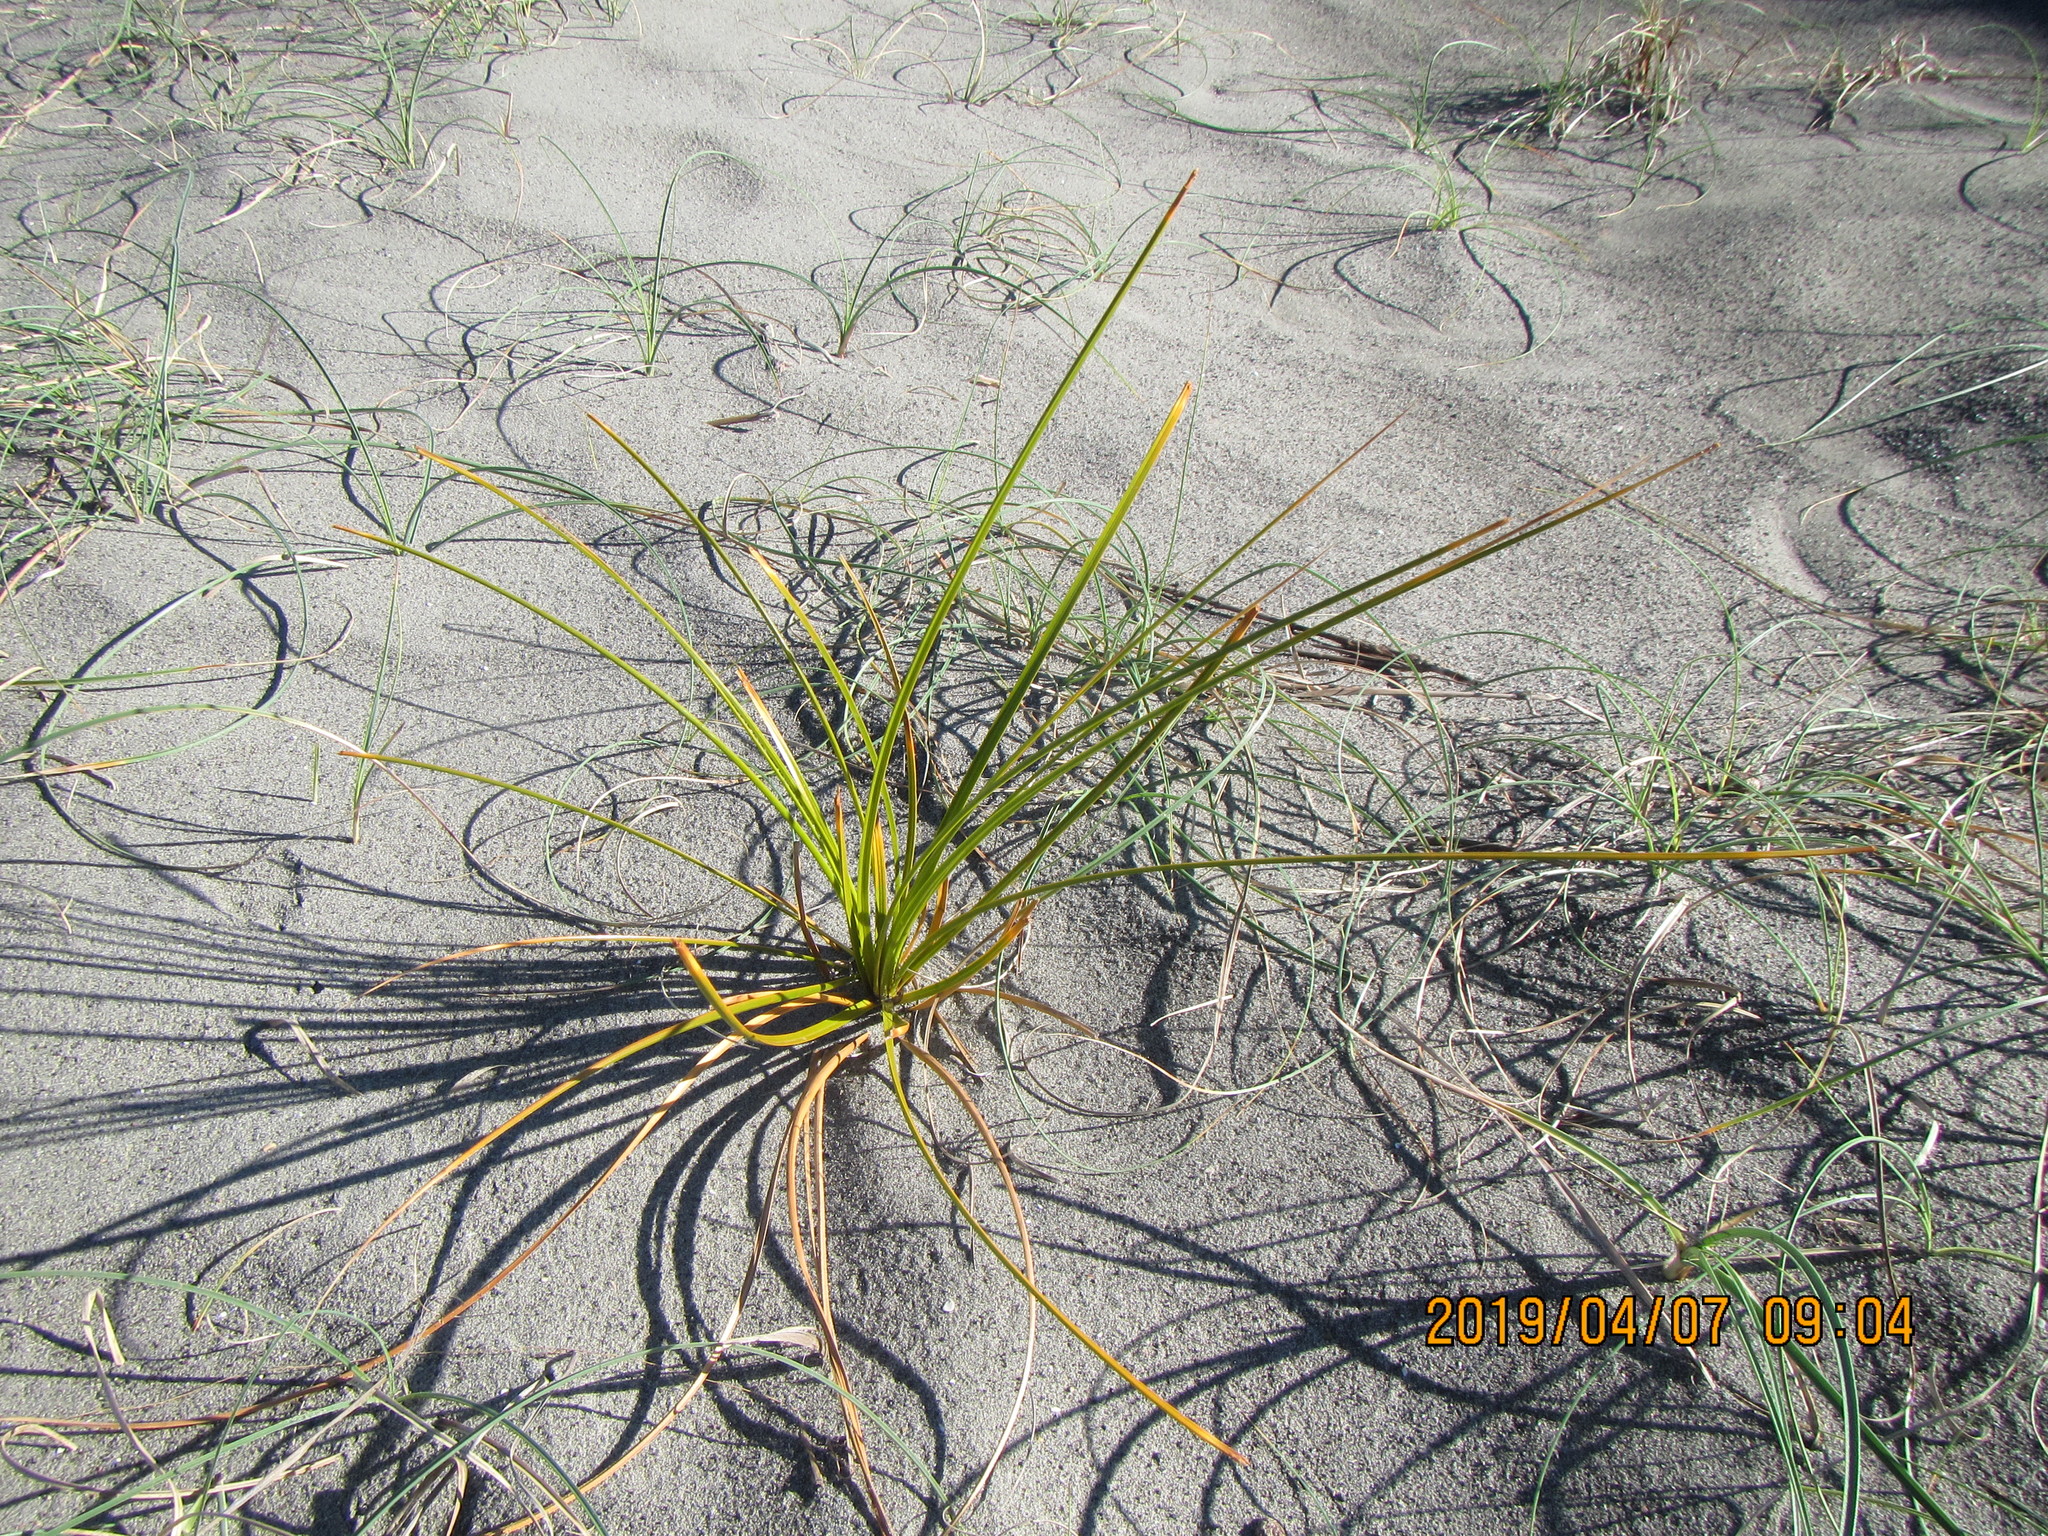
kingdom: Plantae
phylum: Tracheophyta
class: Liliopsida
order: Poales
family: Cyperaceae
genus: Ficinia
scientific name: Ficinia spiralis
